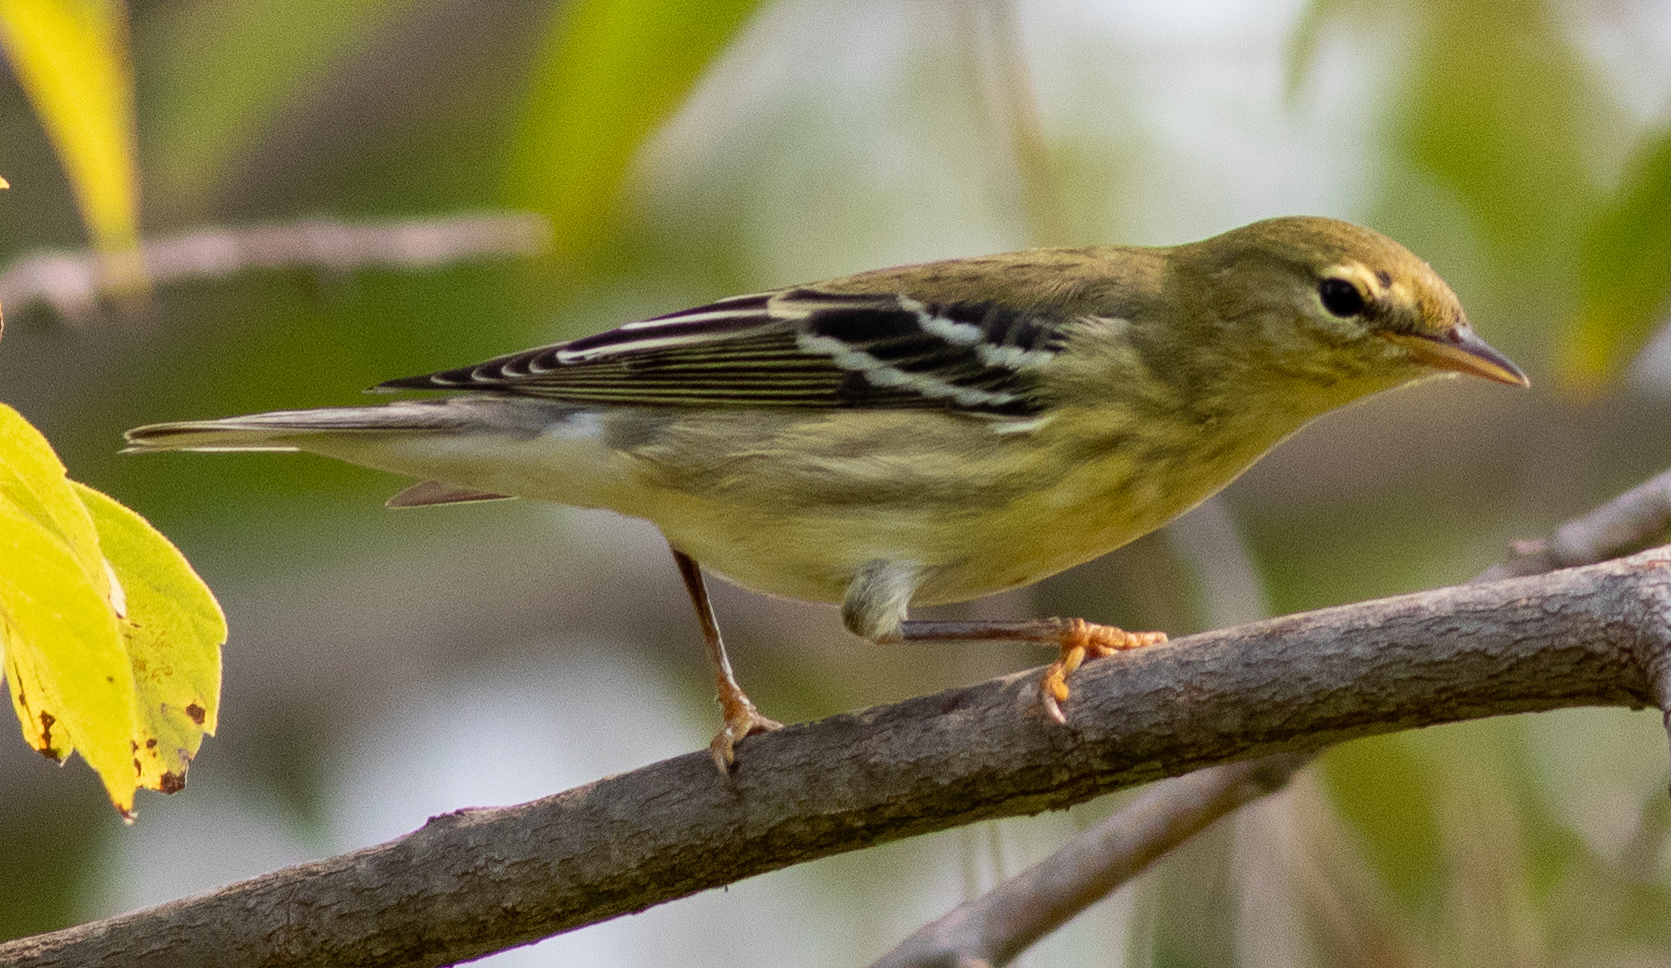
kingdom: Animalia
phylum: Chordata
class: Aves
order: Passeriformes
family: Parulidae
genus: Setophaga
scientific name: Setophaga striata
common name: Blackpoll warbler
